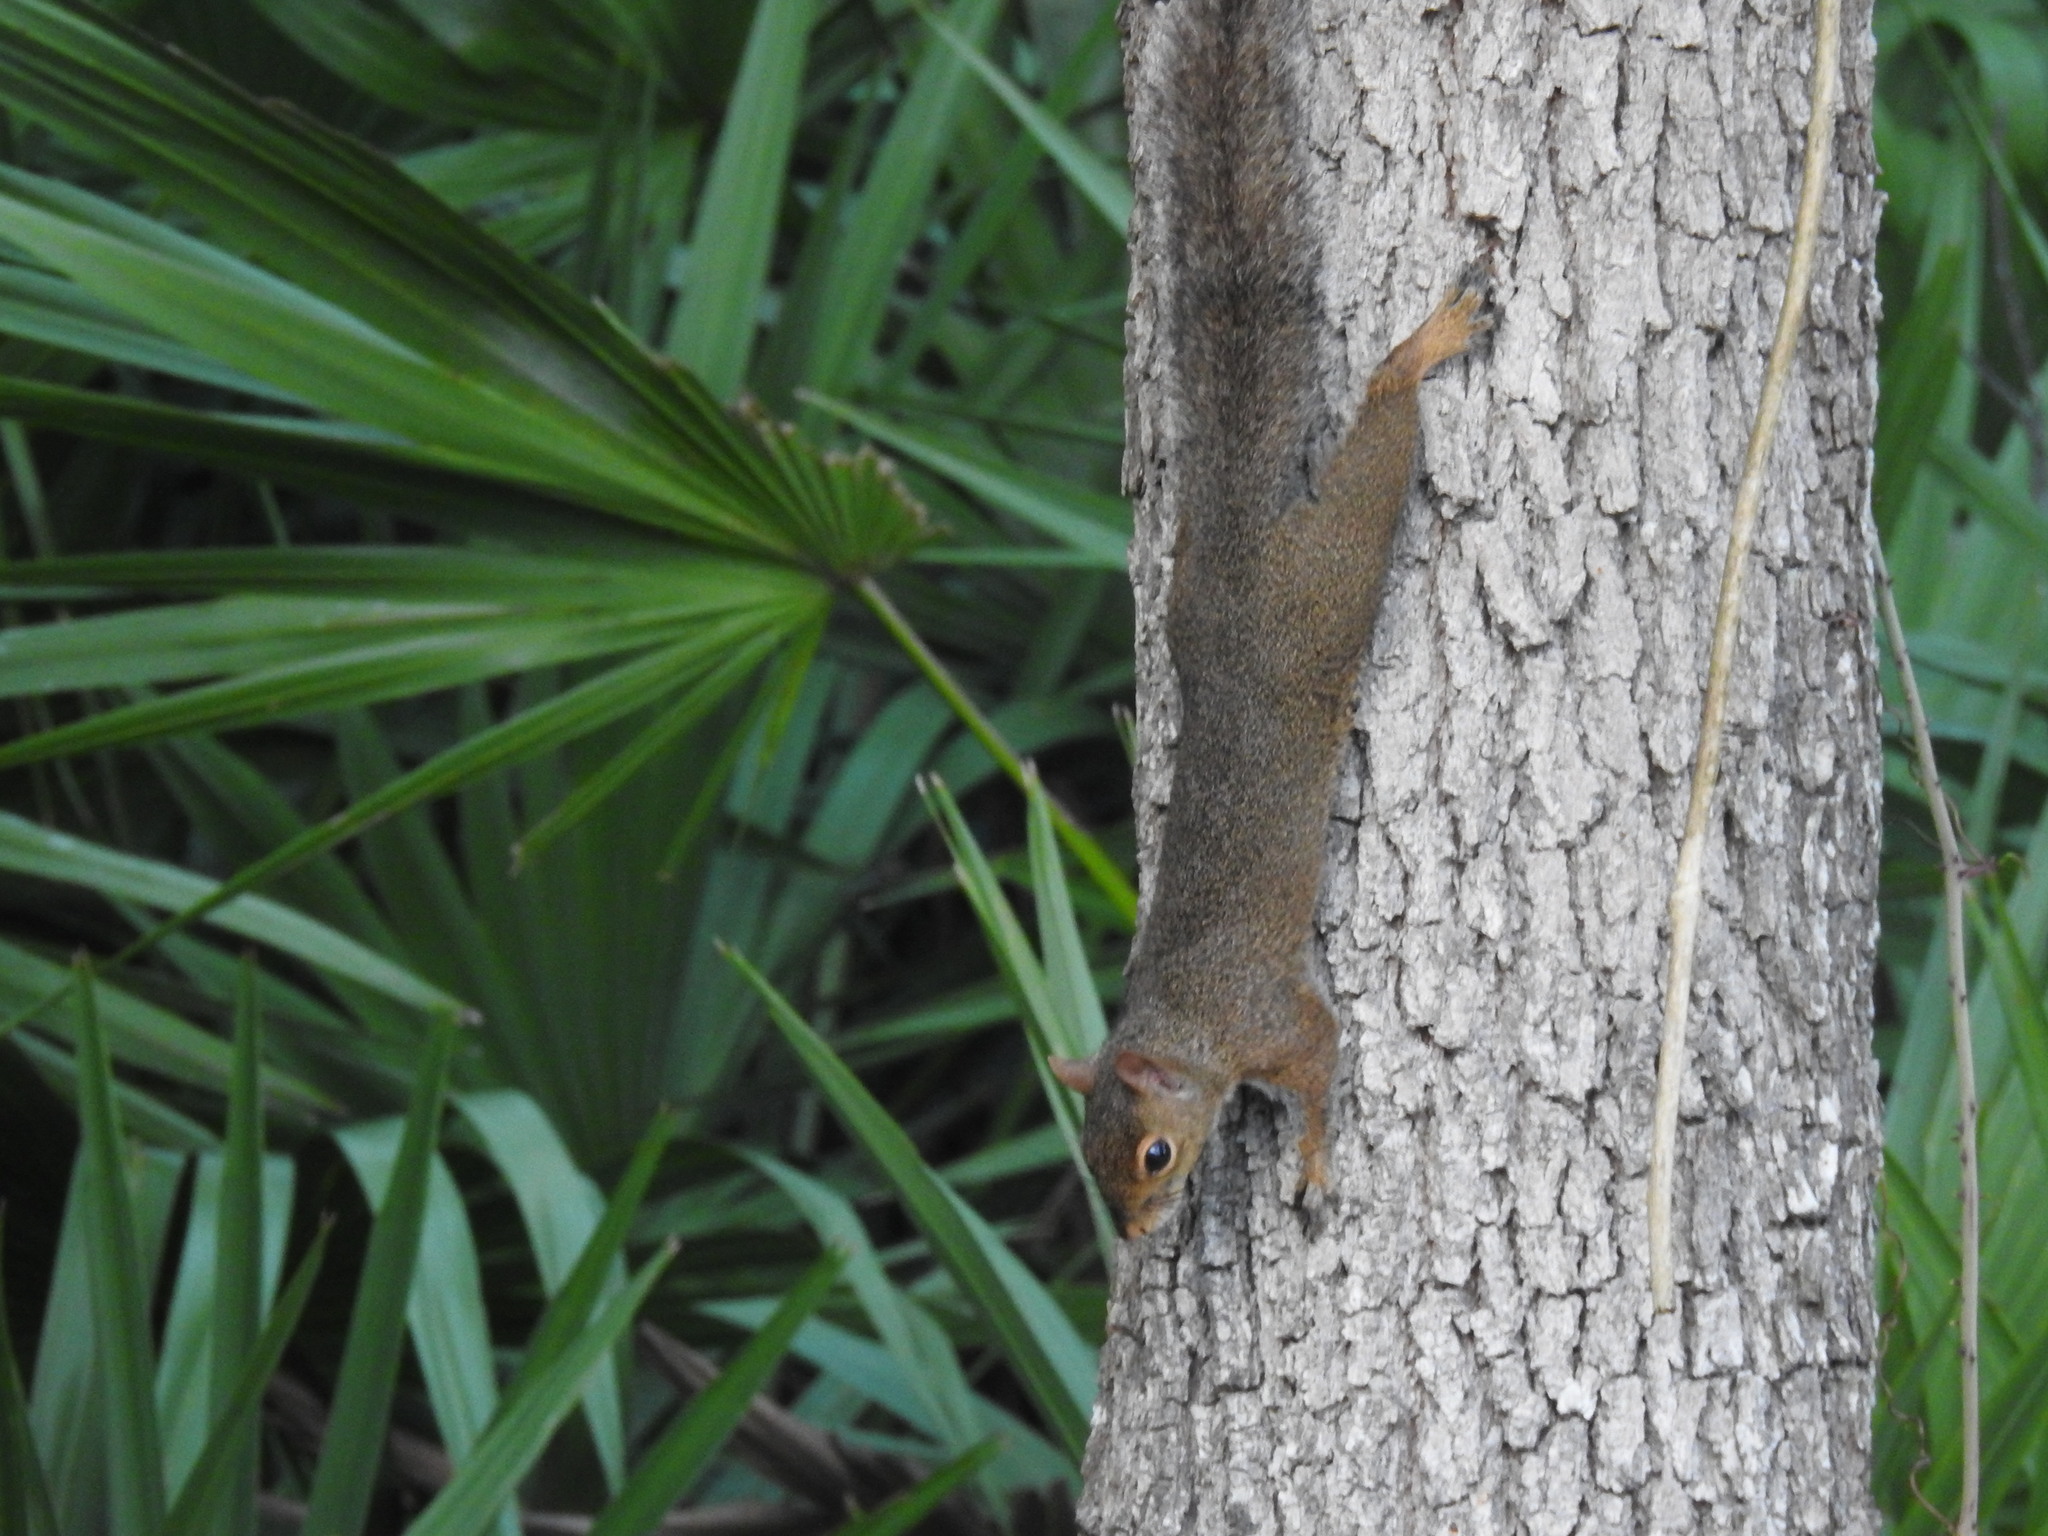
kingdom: Animalia
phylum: Chordata
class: Mammalia
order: Rodentia
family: Sciuridae
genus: Sciurus
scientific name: Sciurus carolinensis
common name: Eastern gray squirrel
